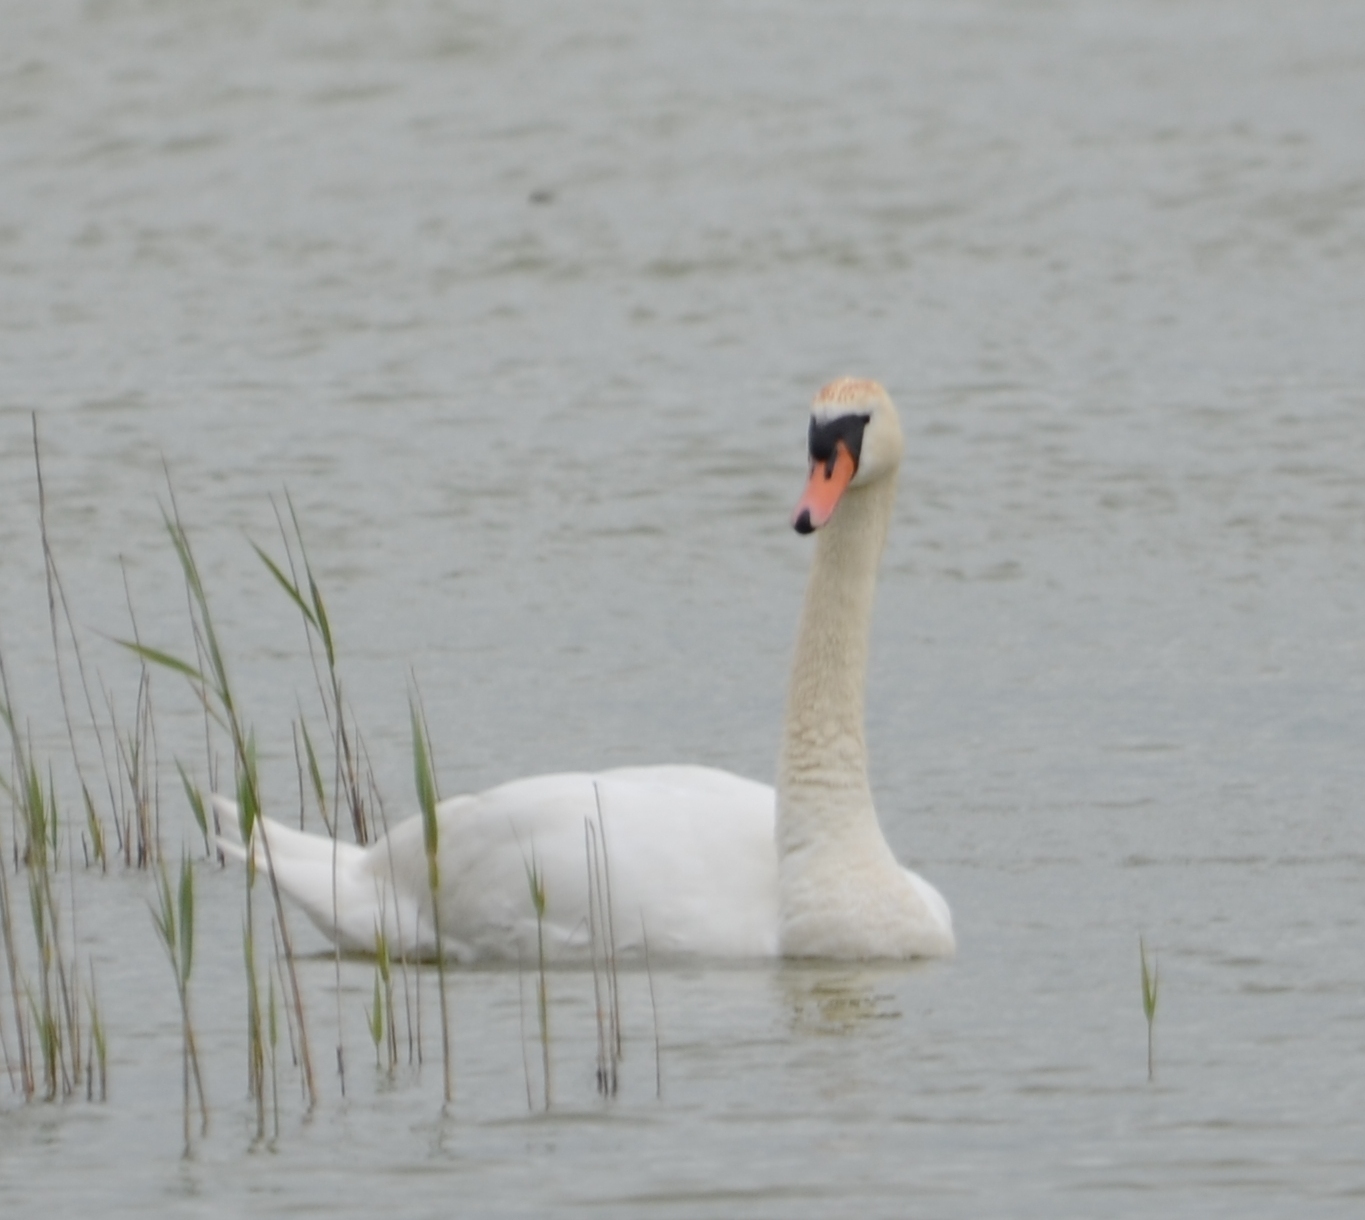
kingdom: Animalia
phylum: Chordata
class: Aves
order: Anseriformes
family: Anatidae
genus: Cygnus
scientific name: Cygnus olor
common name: Mute swan
